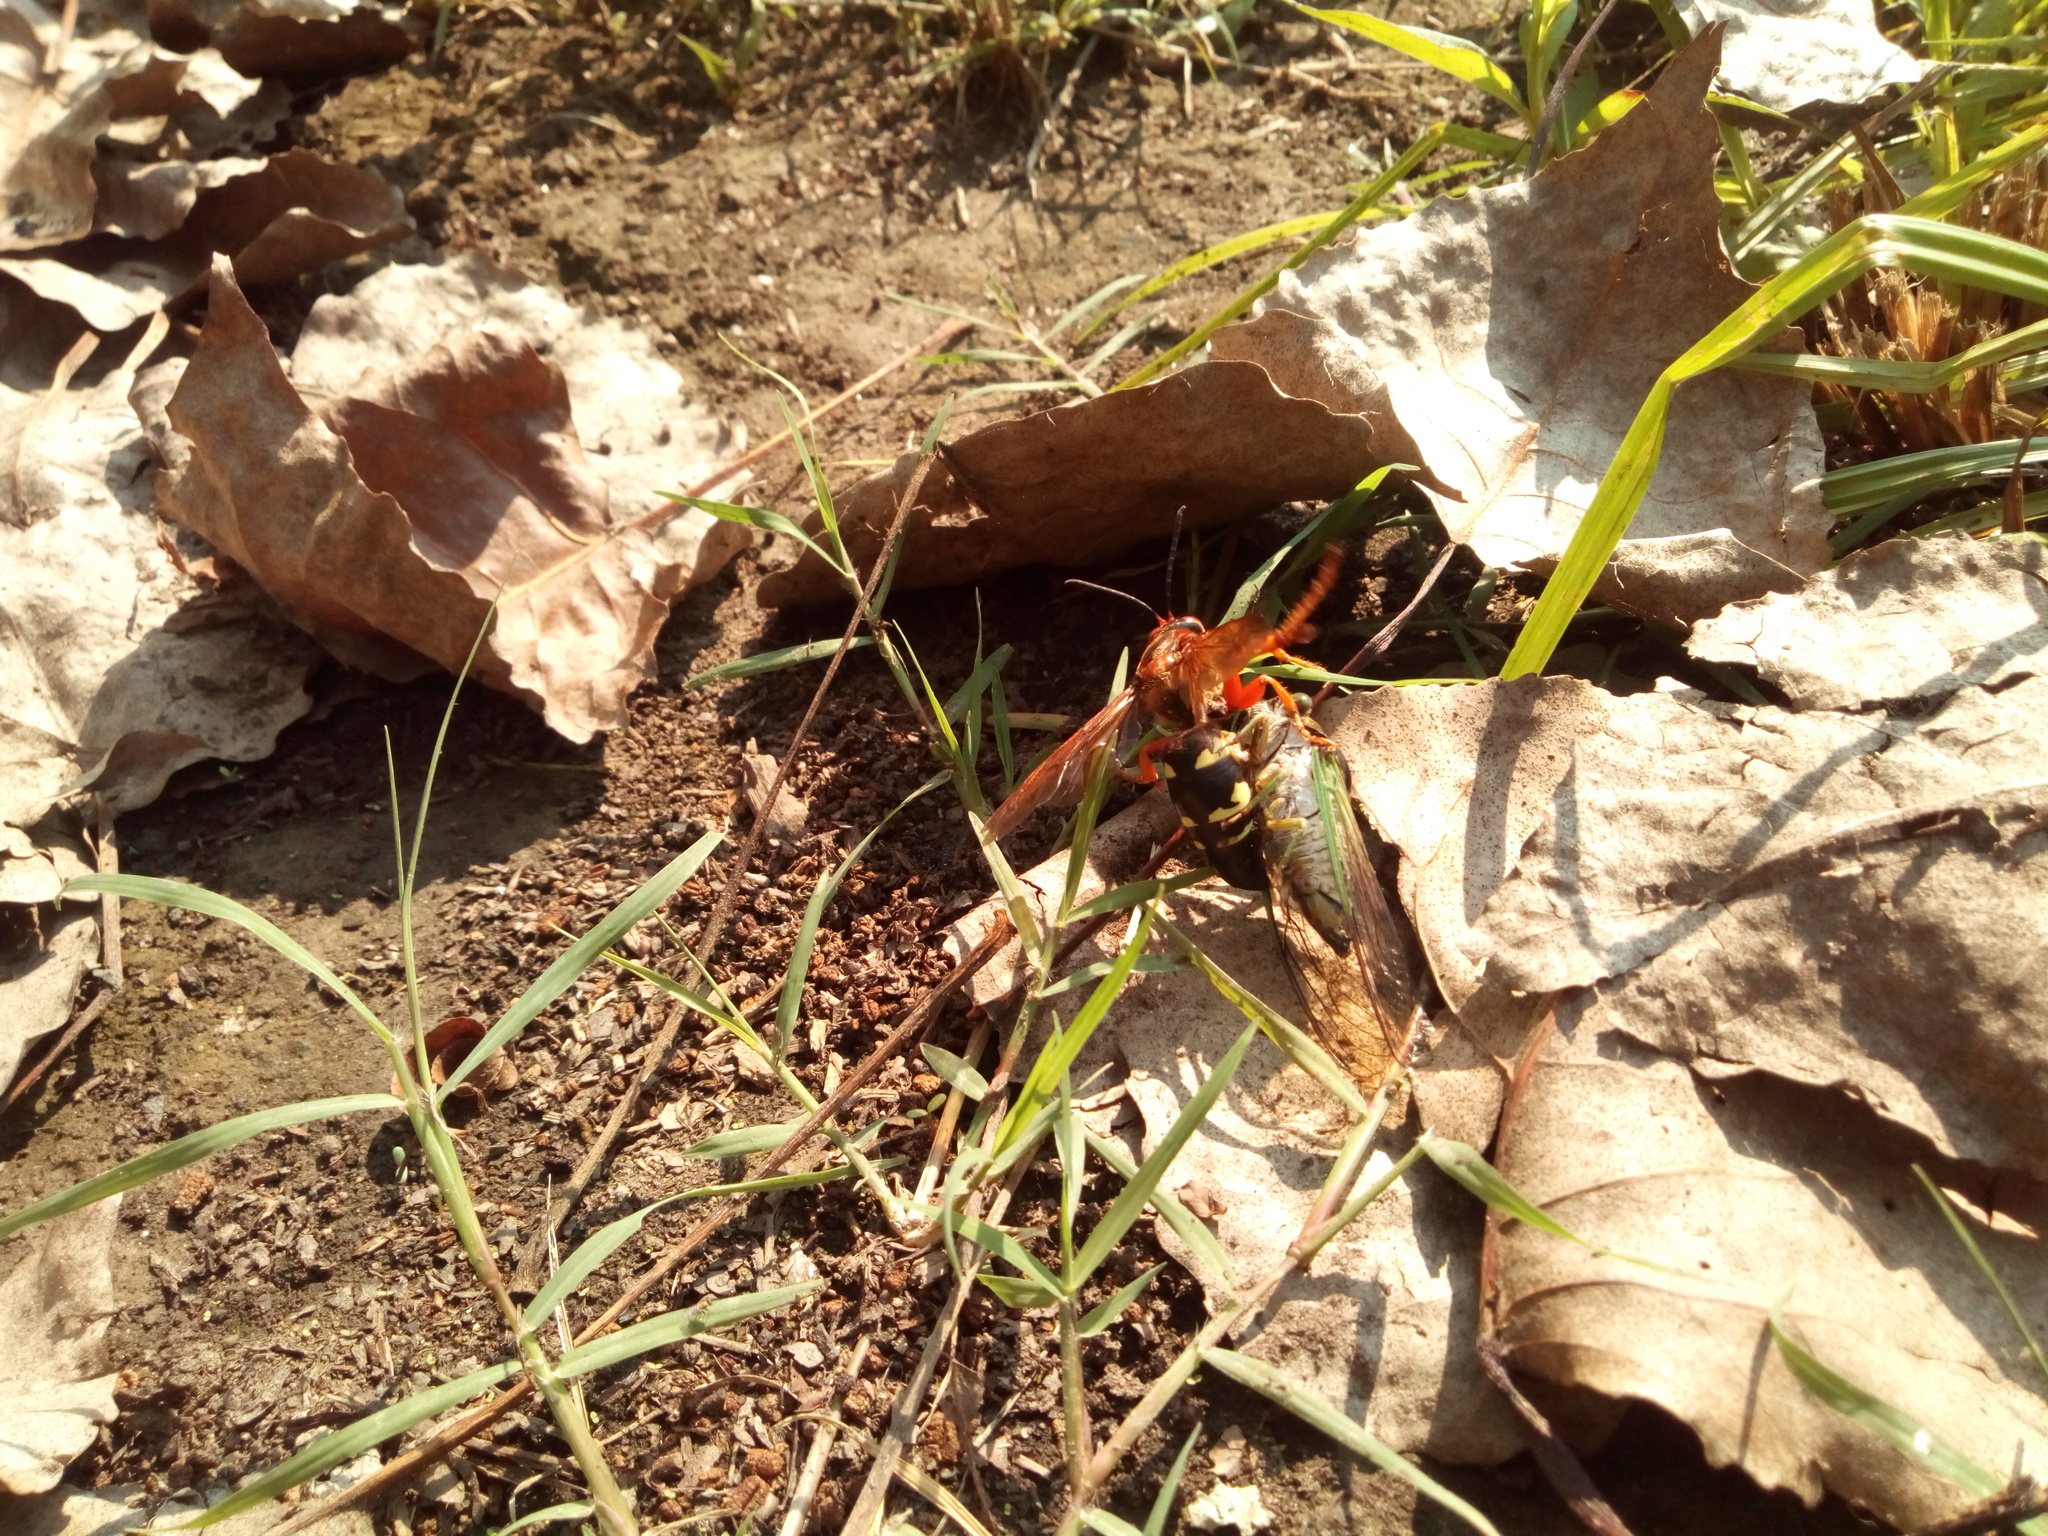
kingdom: Animalia
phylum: Arthropoda
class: Insecta
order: Hymenoptera
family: Crabronidae
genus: Sphecius
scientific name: Sphecius speciosus
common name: Cicada killer
